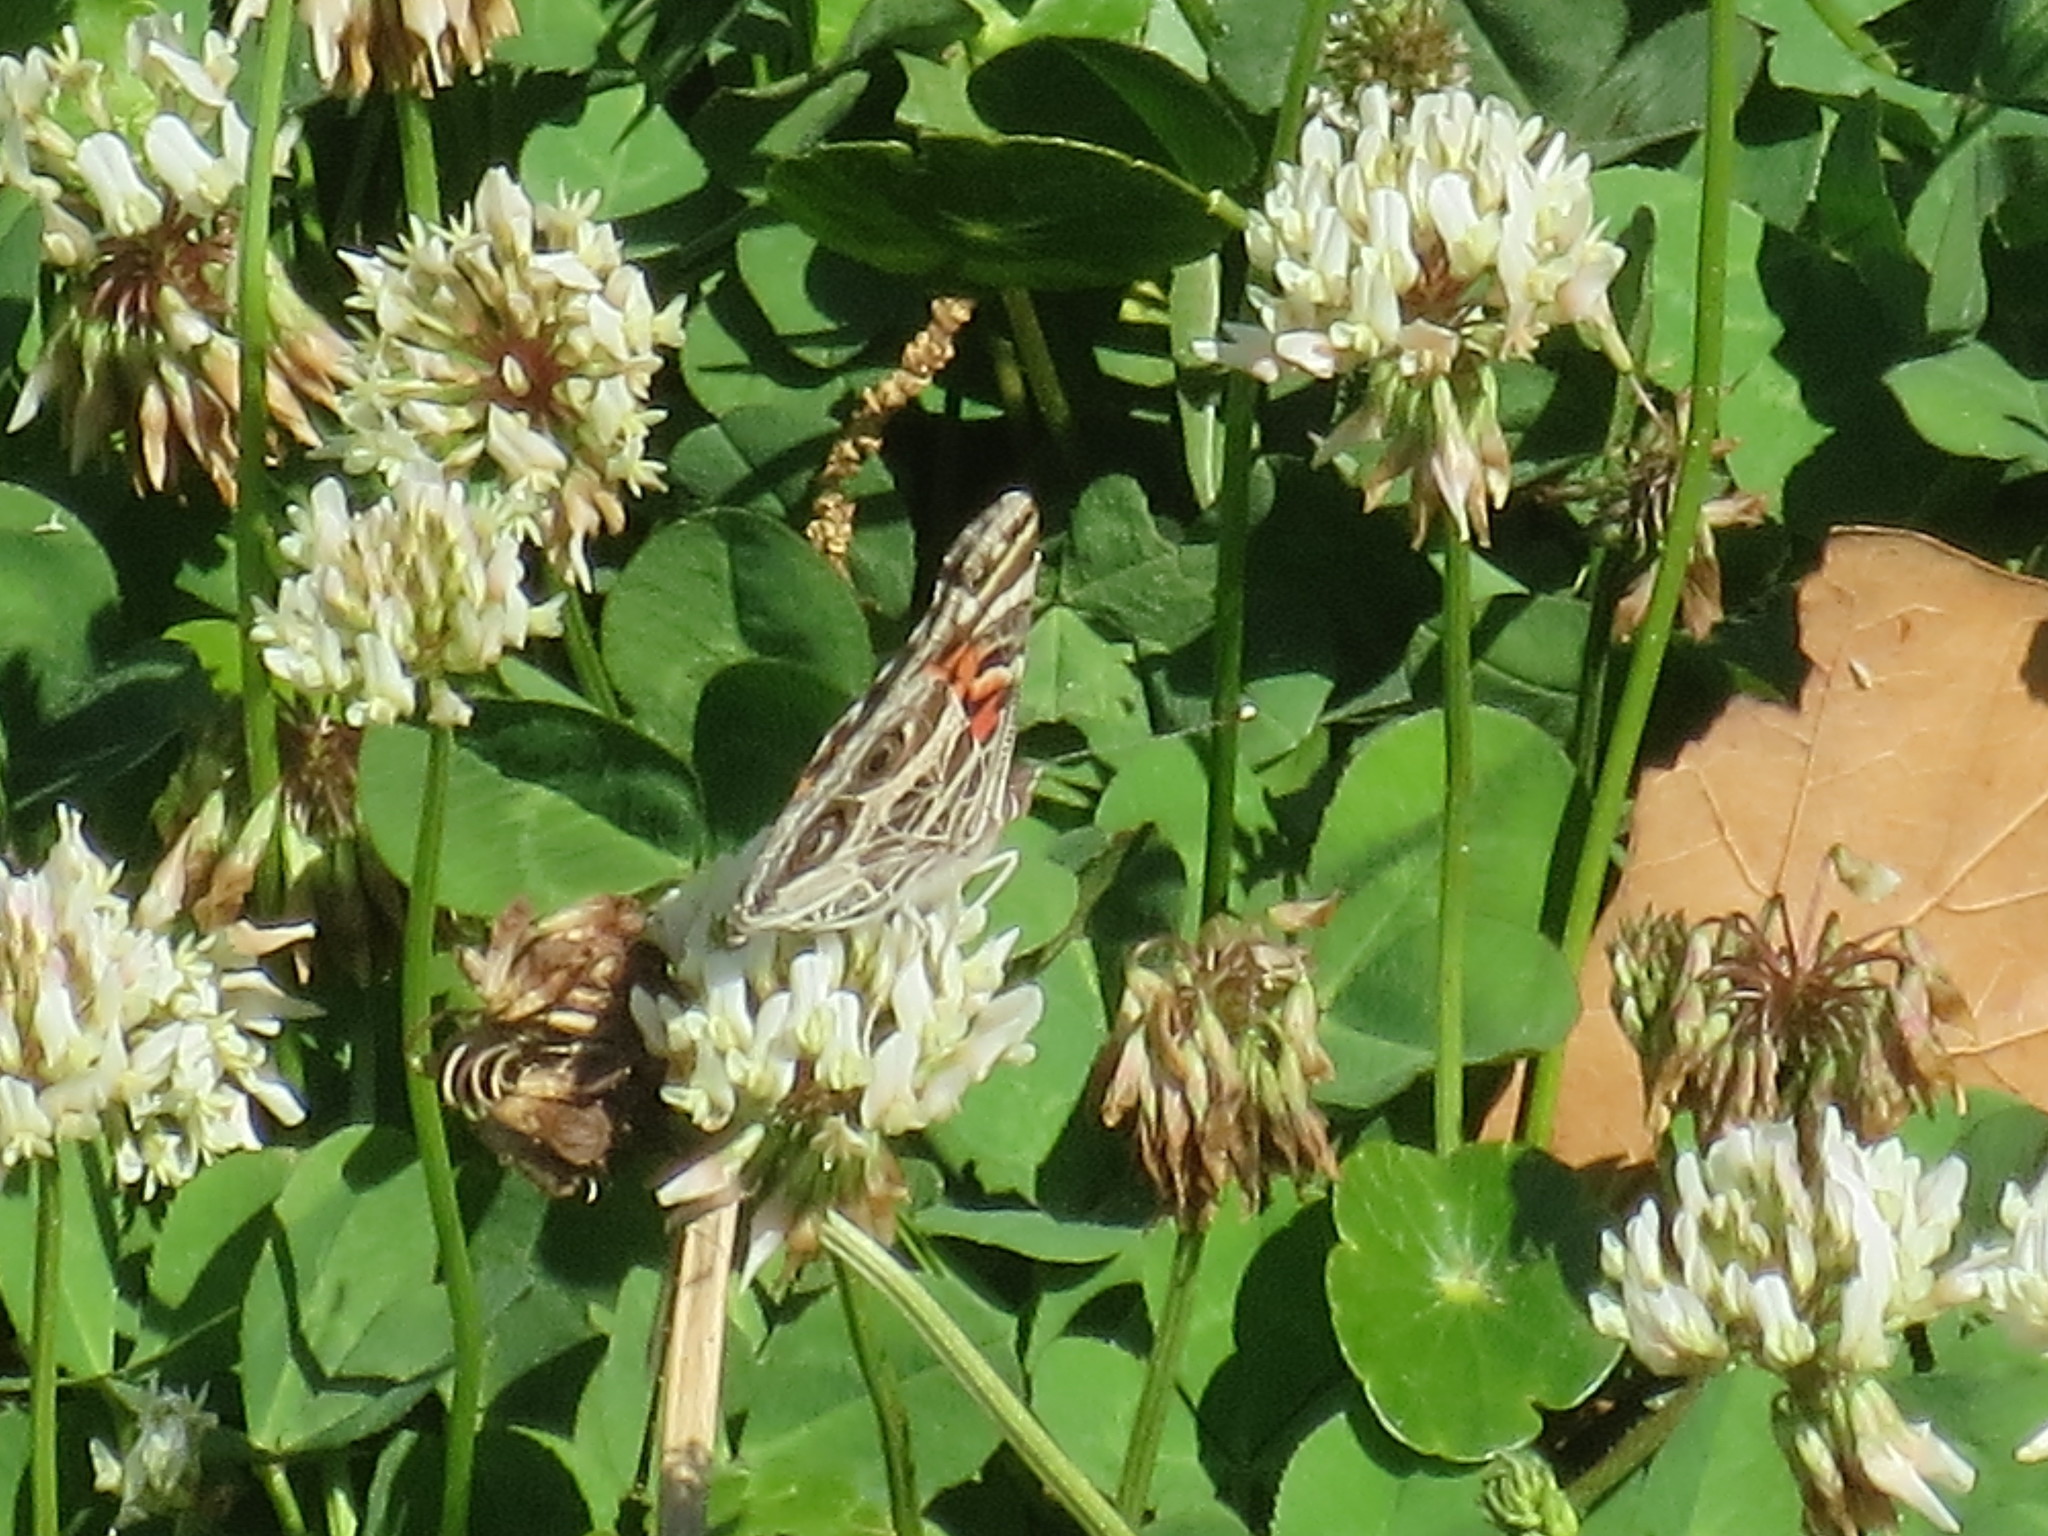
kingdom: Animalia
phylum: Arthropoda
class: Insecta
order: Lepidoptera
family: Nymphalidae
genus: Vanessa
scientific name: Vanessa virginiensis
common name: American lady
